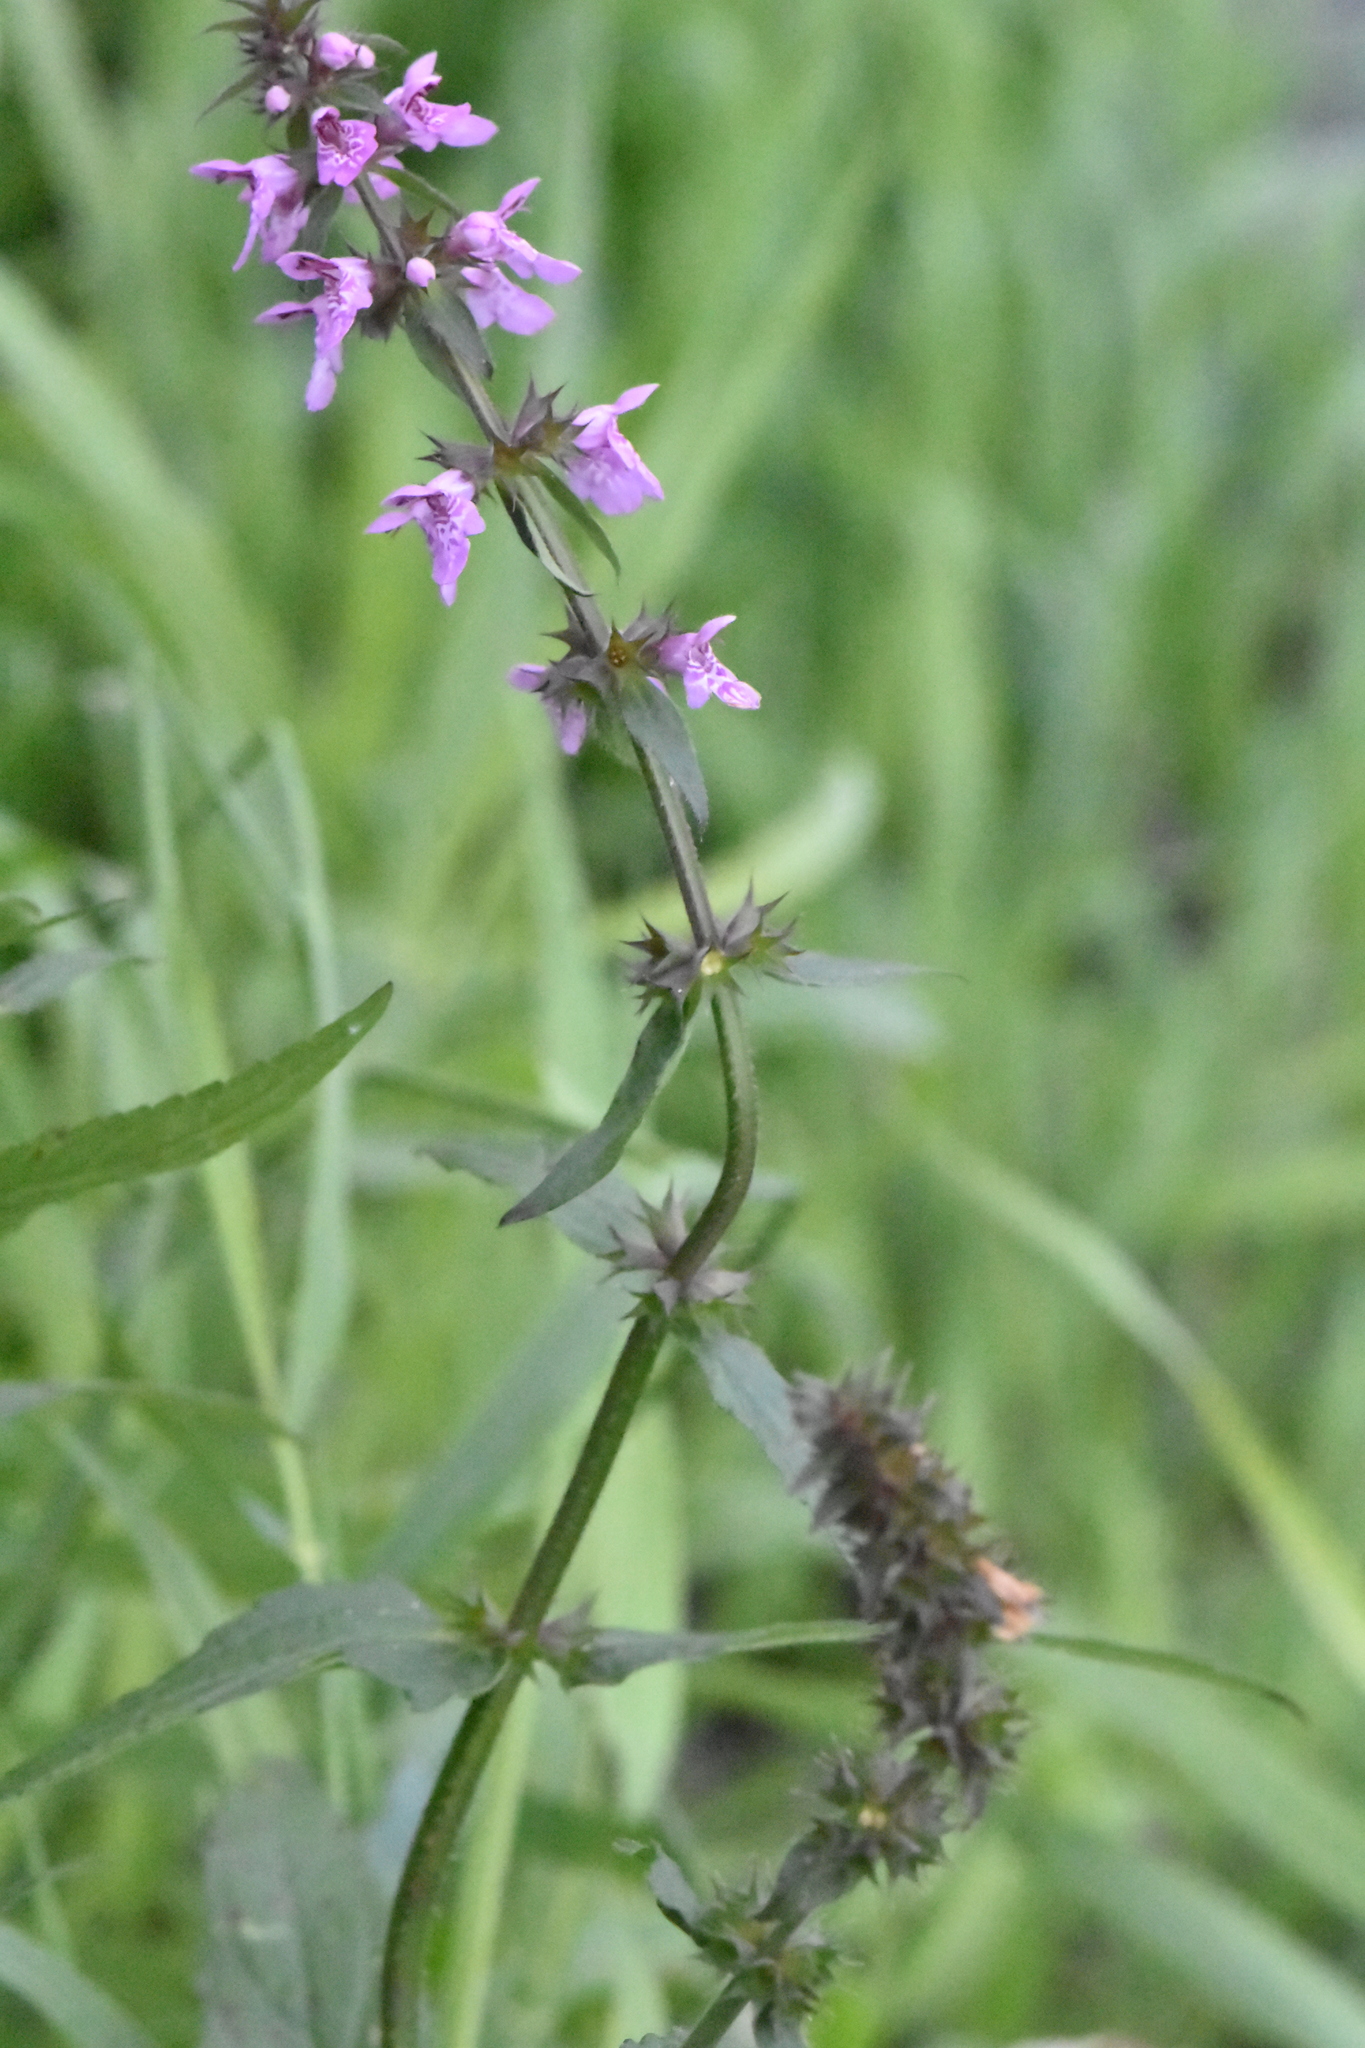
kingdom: Plantae
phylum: Tracheophyta
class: Magnoliopsida
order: Lamiales
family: Lamiaceae
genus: Stachys
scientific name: Stachys palustris
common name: Marsh woundwort
